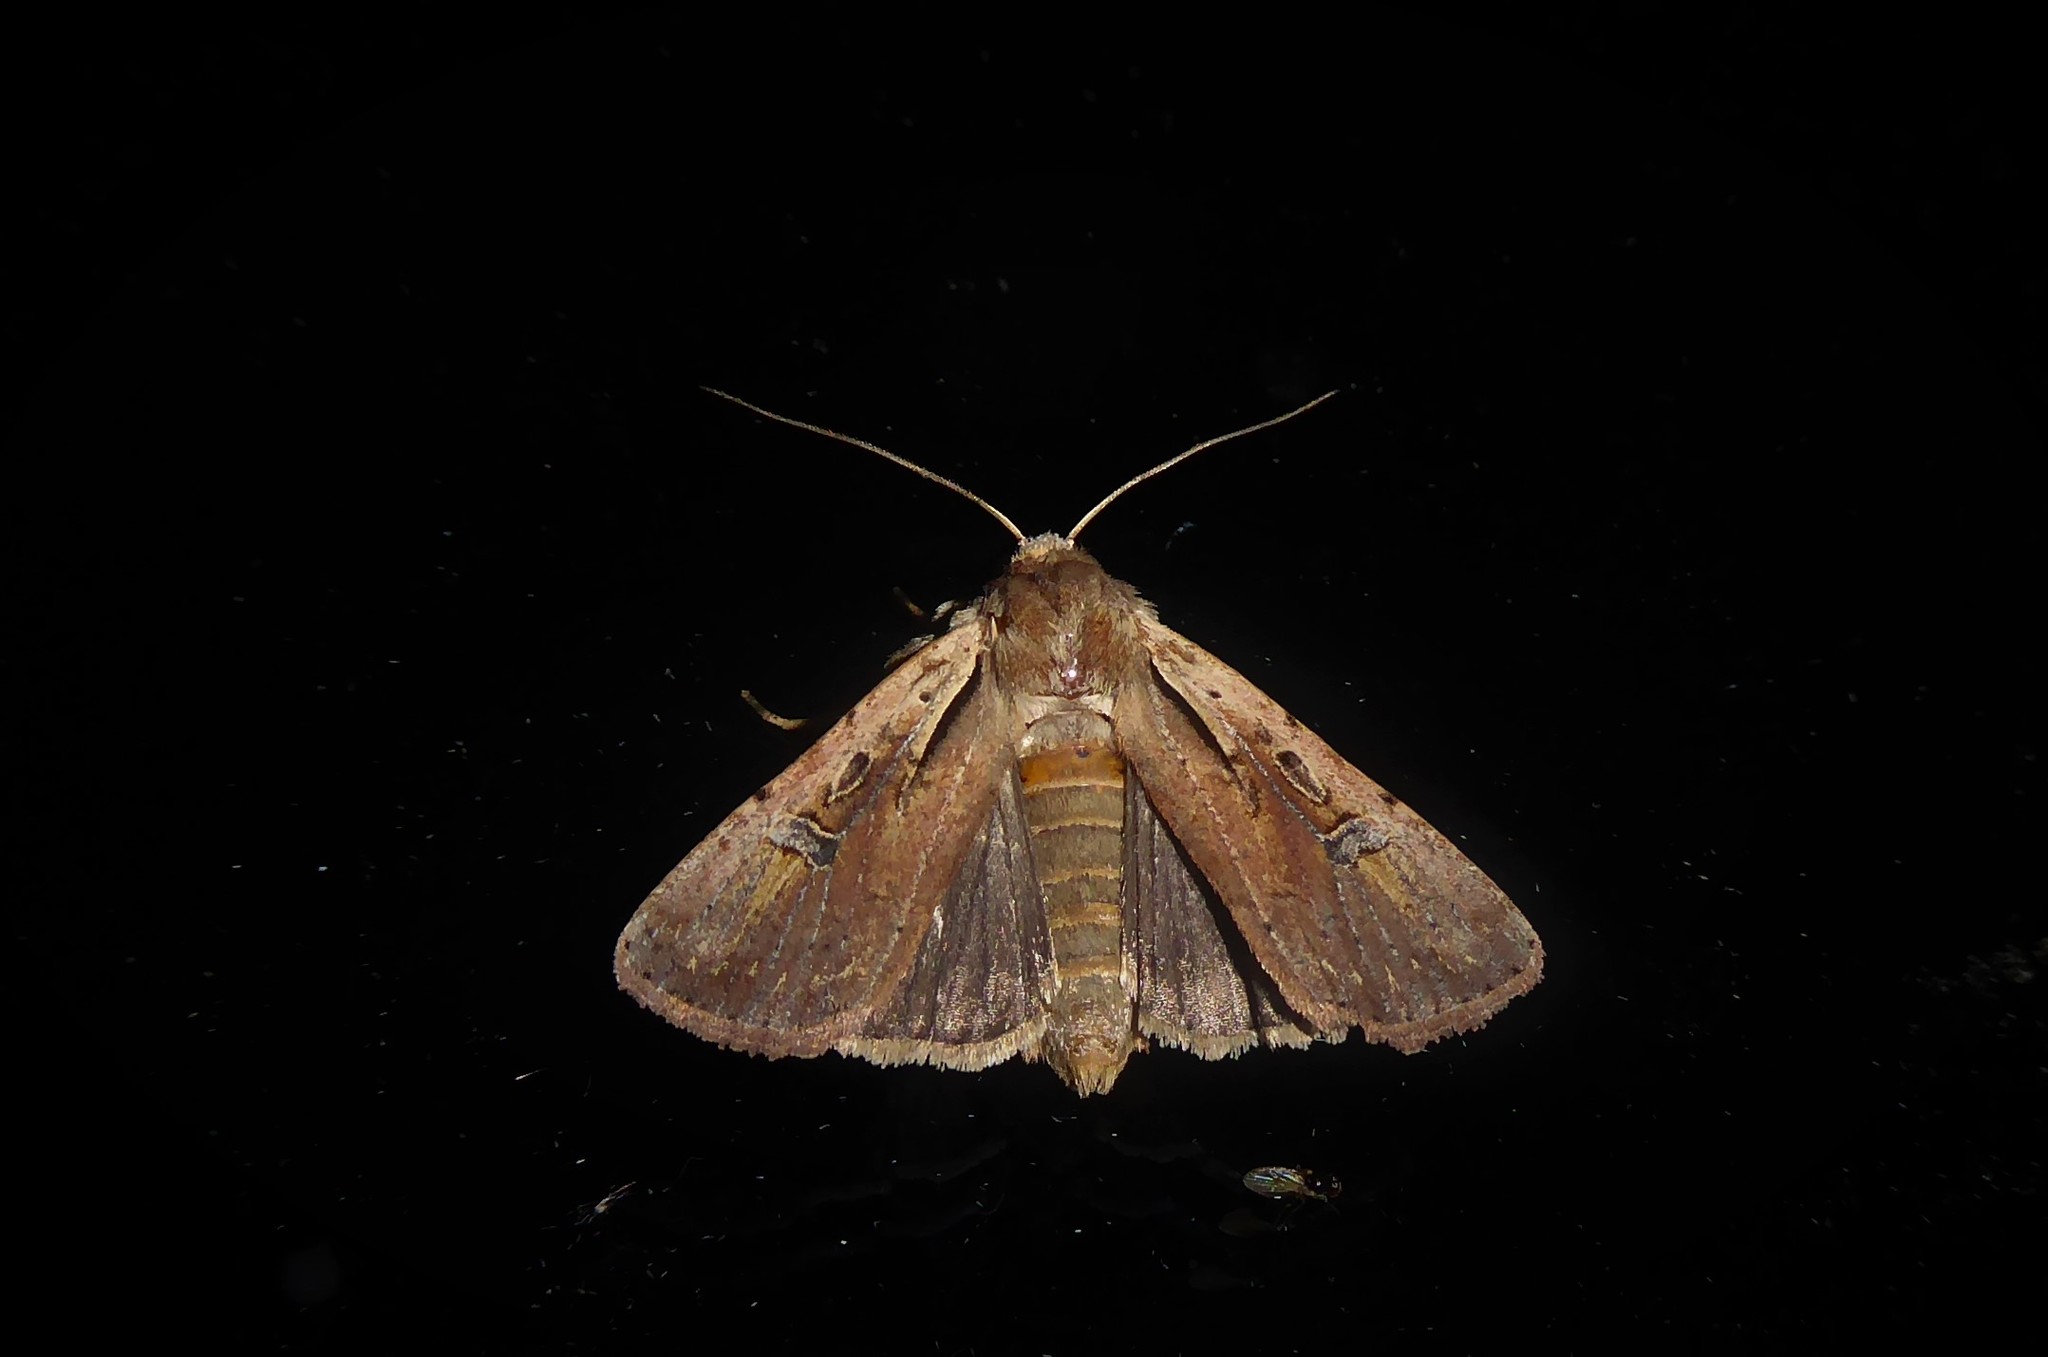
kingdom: Animalia
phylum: Arthropoda
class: Insecta
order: Lepidoptera
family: Noctuidae
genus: Ichneutica
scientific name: Ichneutica atristriga
